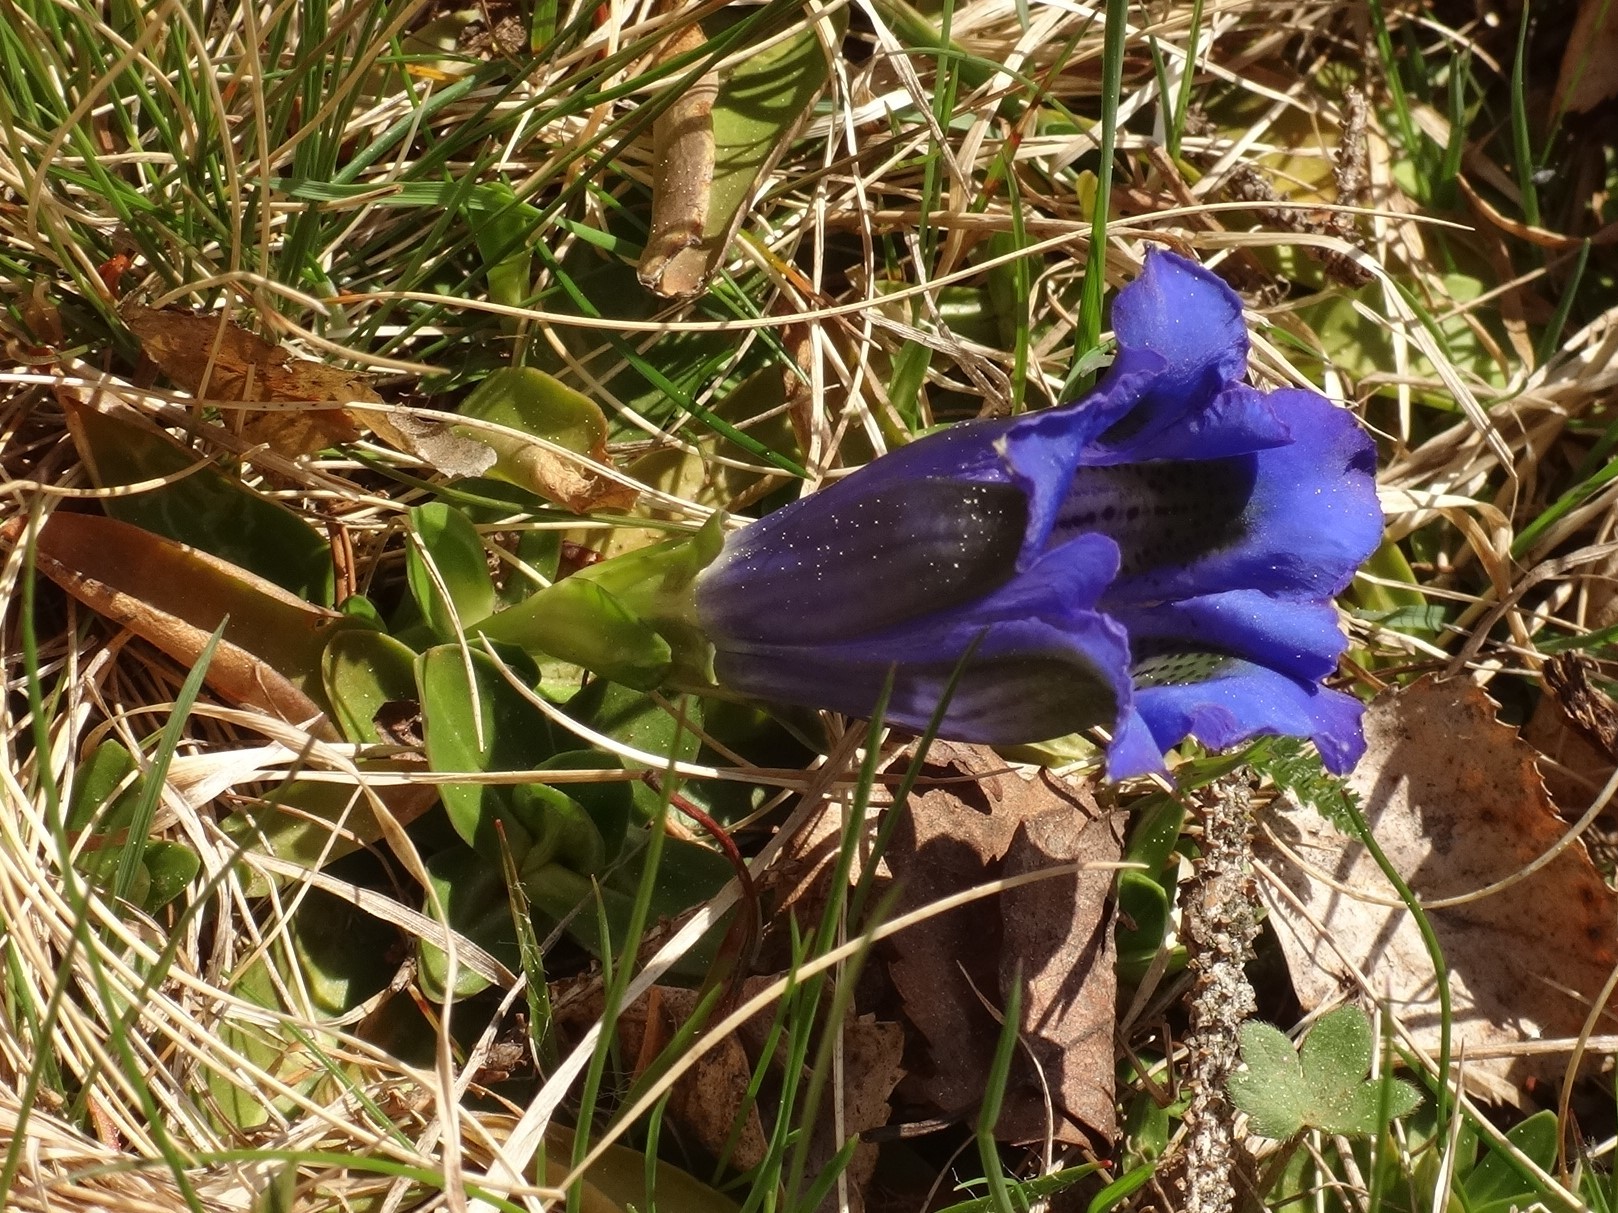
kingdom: Plantae
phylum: Tracheophyta
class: Magnoliopsida
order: Gentianales
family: Gentianaceae
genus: Gentiana
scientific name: Gentiana acaulis
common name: Trumpet gentian
